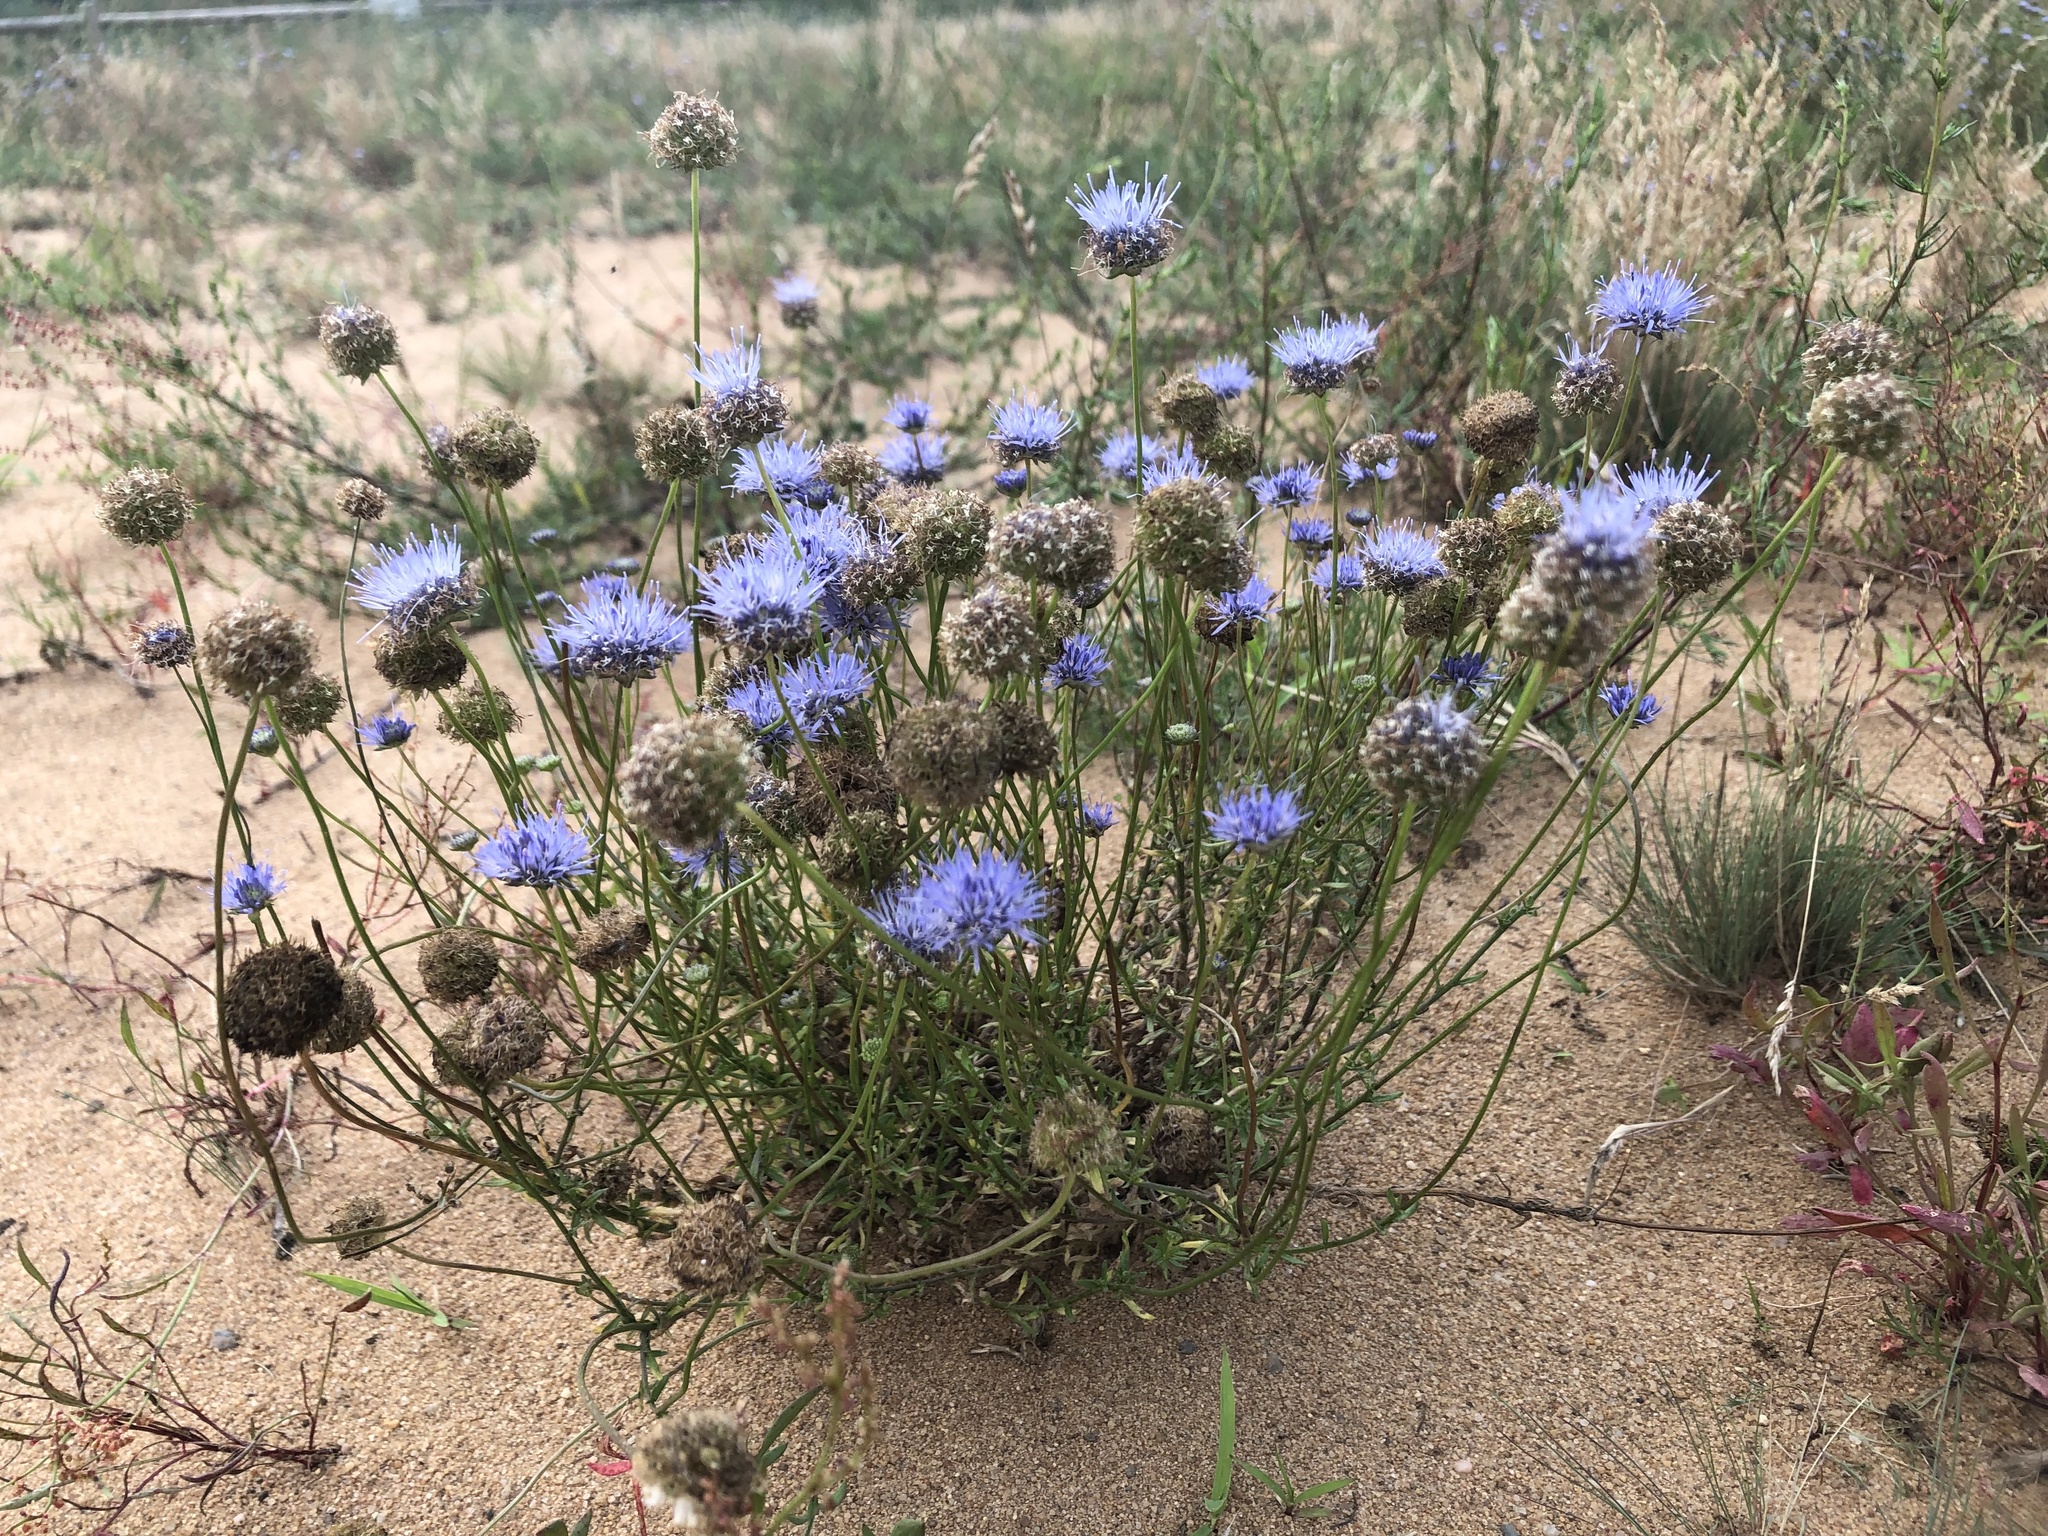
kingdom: Plantae
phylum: Tracheophyta
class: Magnoliopsida
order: Asterales
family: Campanulaceae
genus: Jasione
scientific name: Jasione montana
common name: Sheep's-bit
